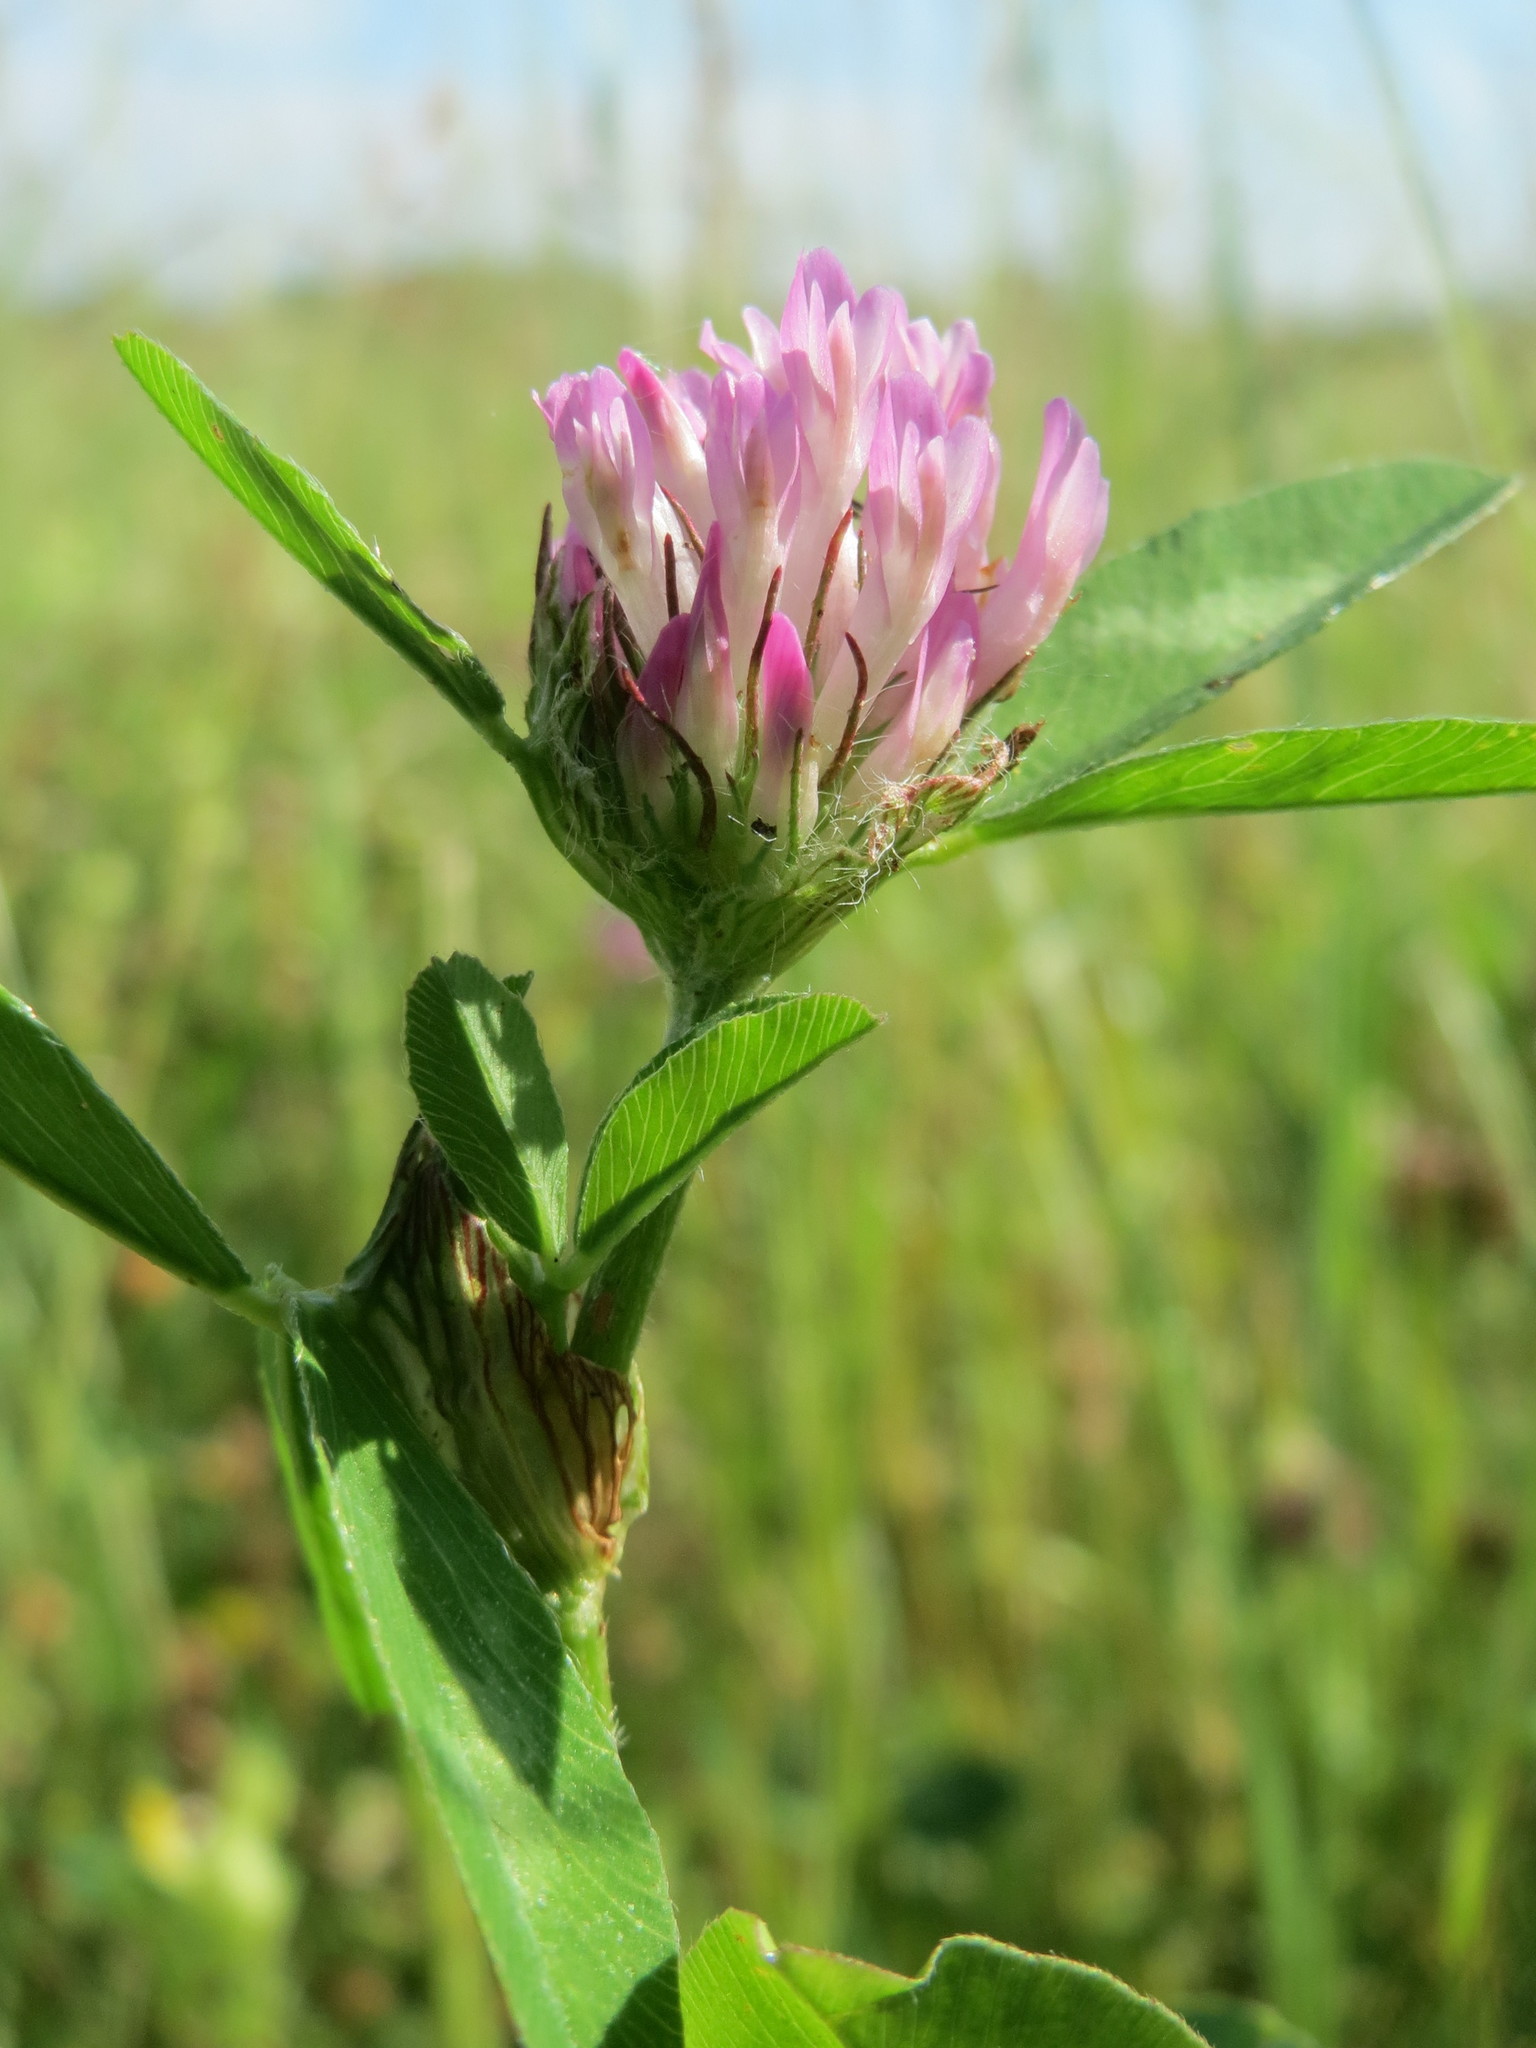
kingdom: Plantae
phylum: Tracheophyta
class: Magnoliopsida
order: Fabales
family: Fabaceae
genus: Trifolium
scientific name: Trifolium pratense
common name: Red clover
